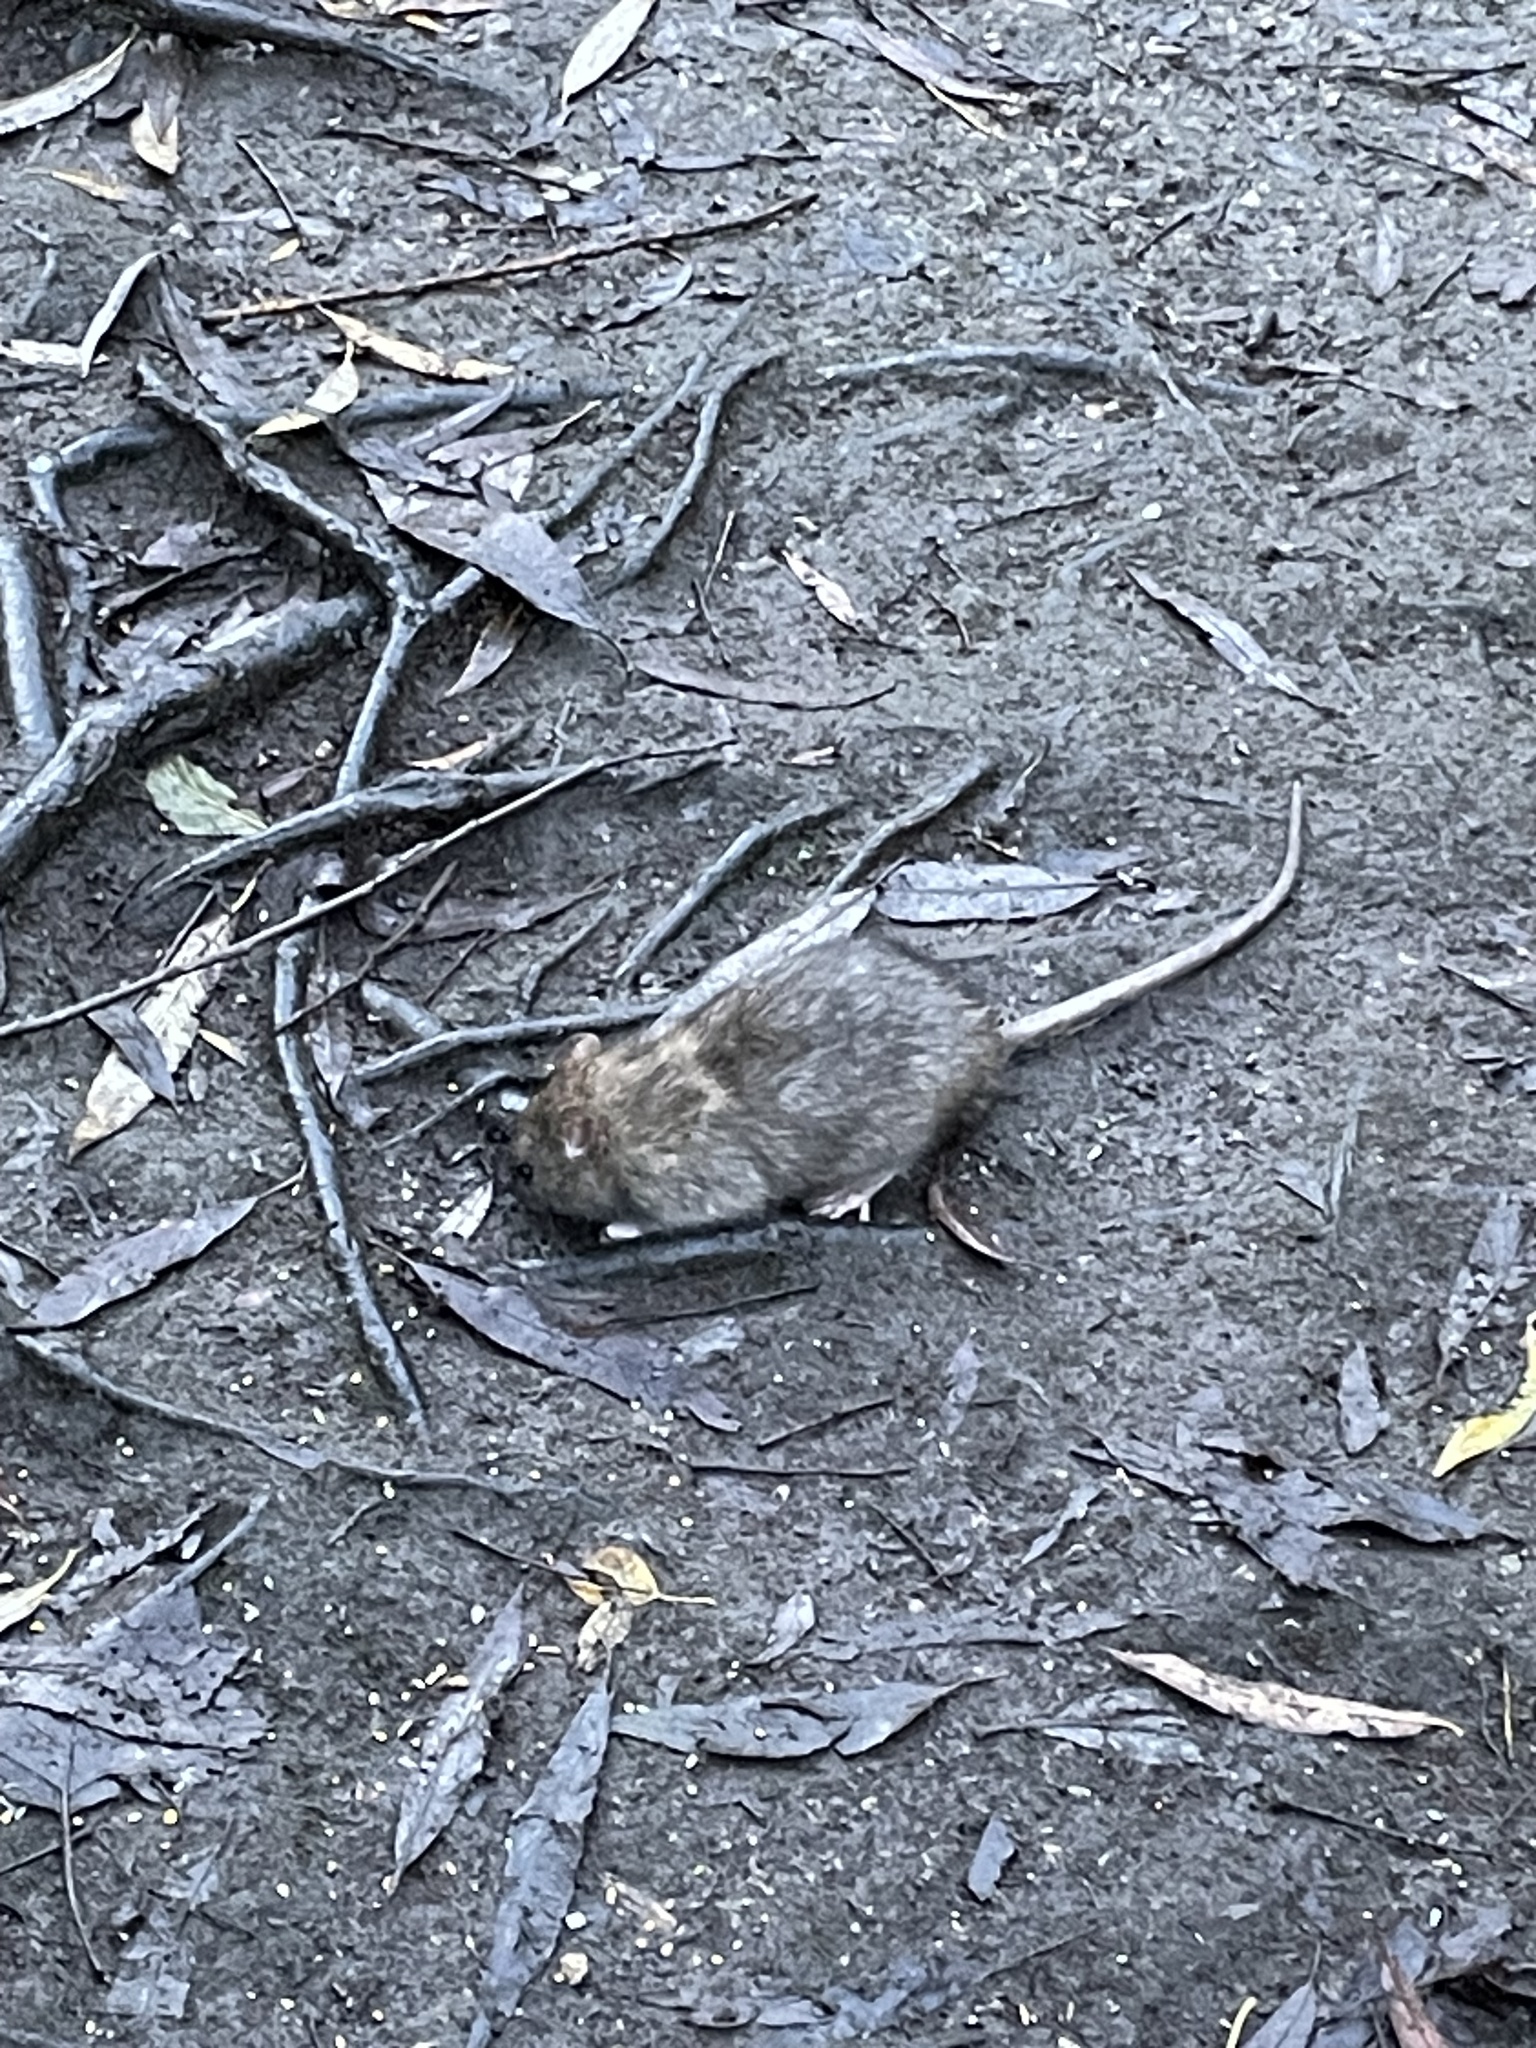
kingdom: Animalia
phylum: Chordata
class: Mammalia
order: Rodentia
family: Muridae
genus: Rattus
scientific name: Rattus norvegicus
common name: Brown rat
